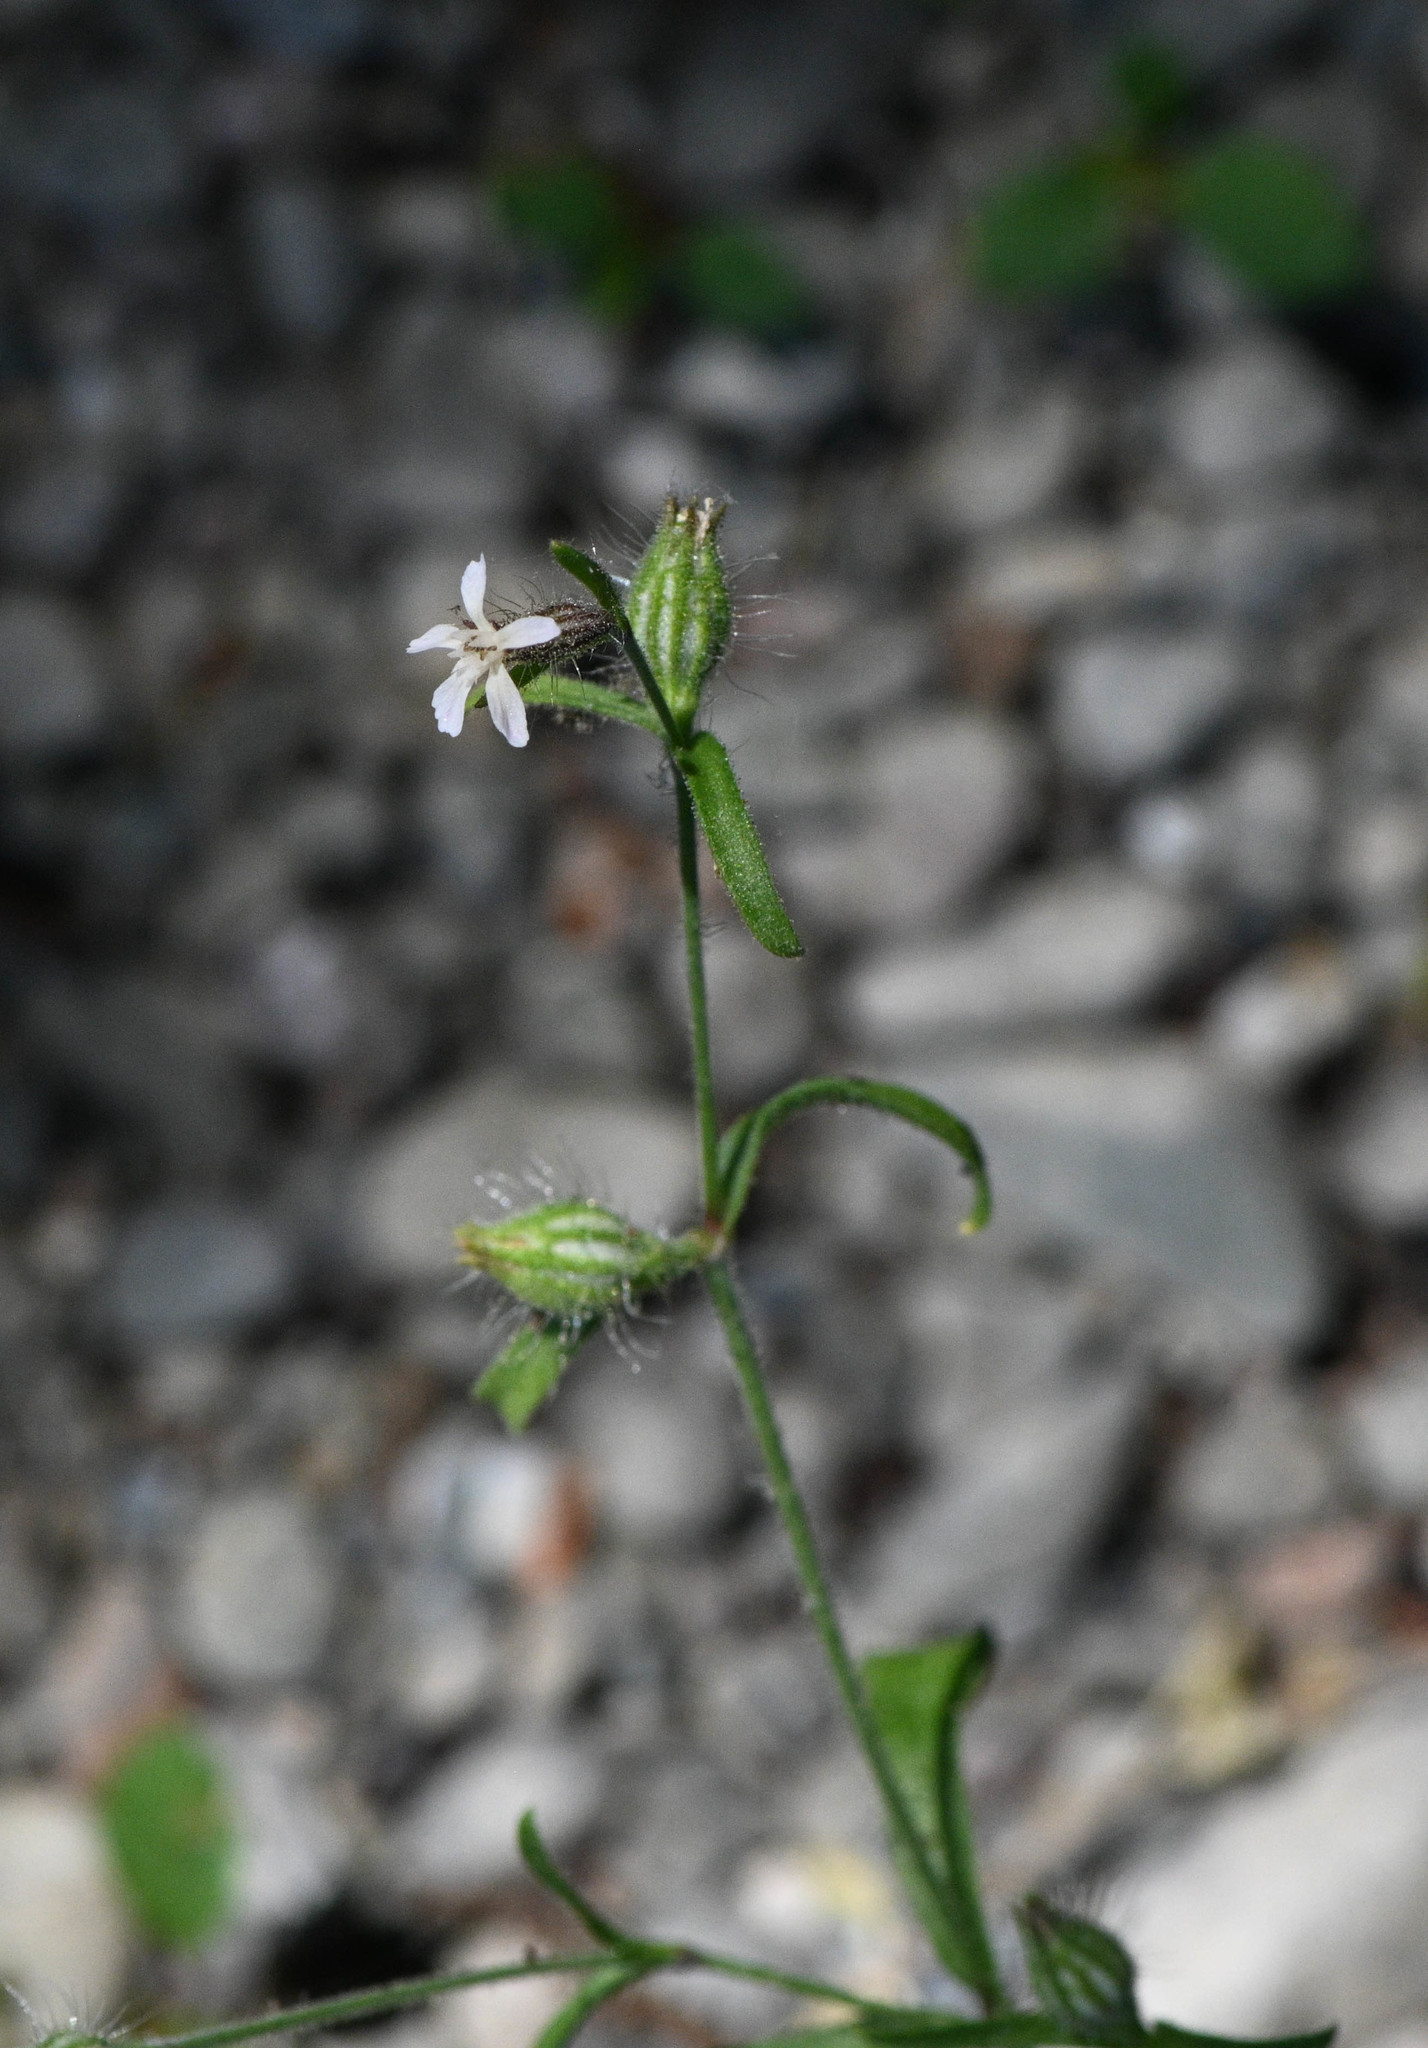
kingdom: Plantae
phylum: Tracheophyta
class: Magnoliopsida
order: Caryophyllales
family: Caryophyllaceae
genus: Silene
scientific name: Silene gallica
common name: Small-flowered catchfly
